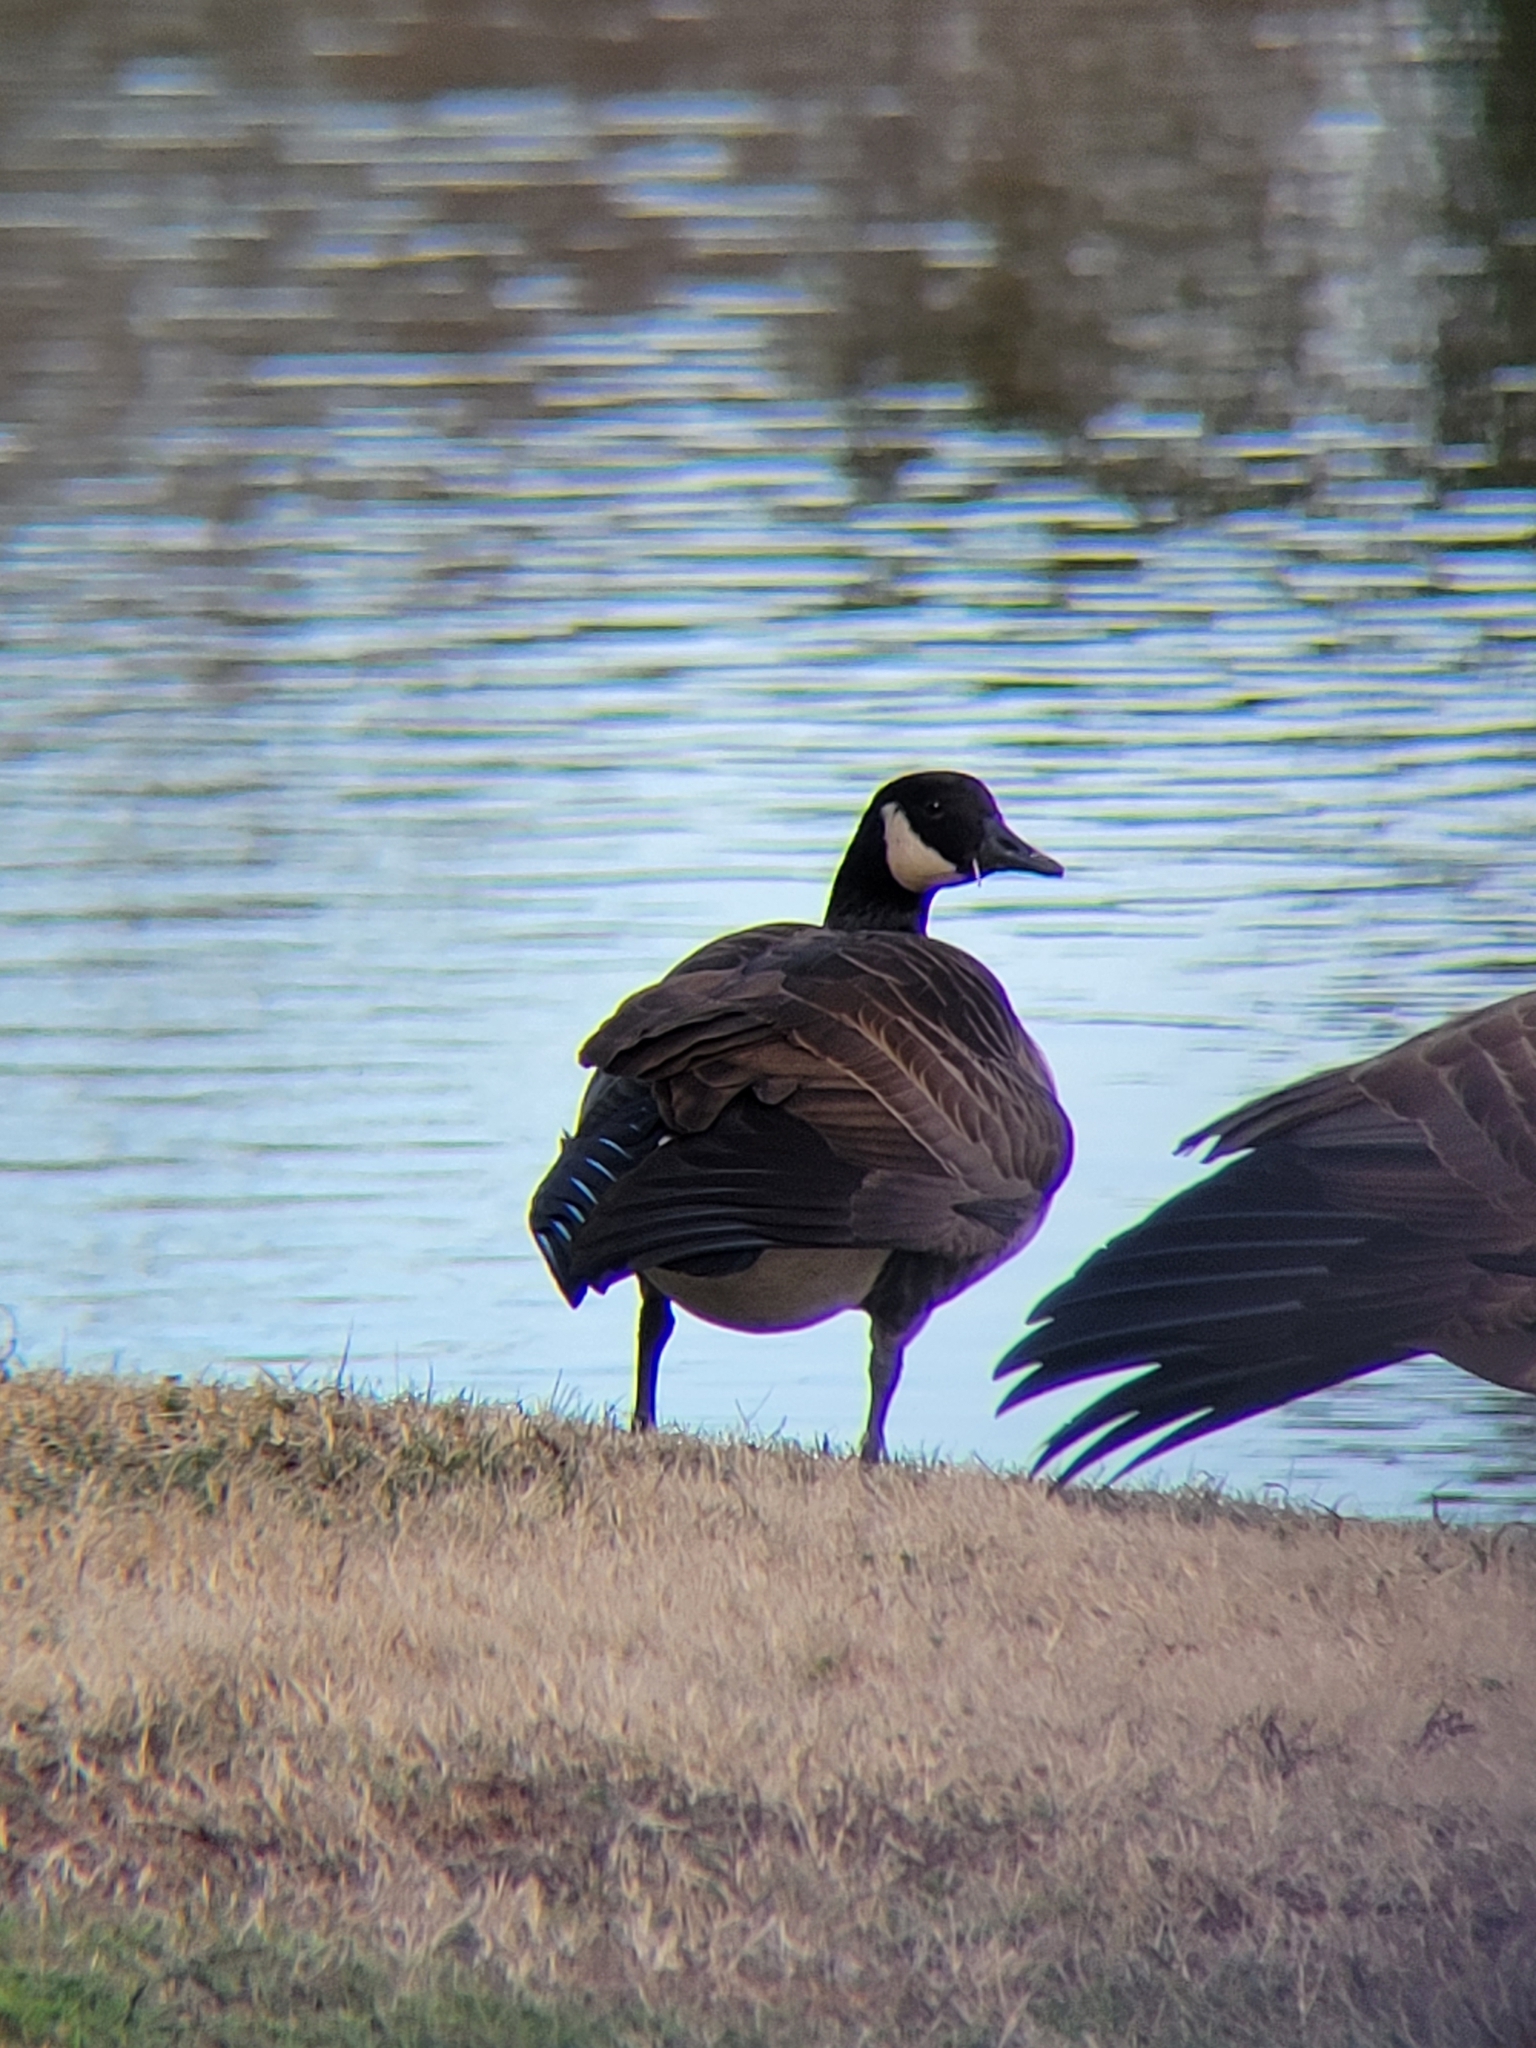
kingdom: Animalia
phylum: Chordata
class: Aves
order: Anseriformes
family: Anatidae
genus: Branta
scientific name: Branta canadensis
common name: Canada goose
